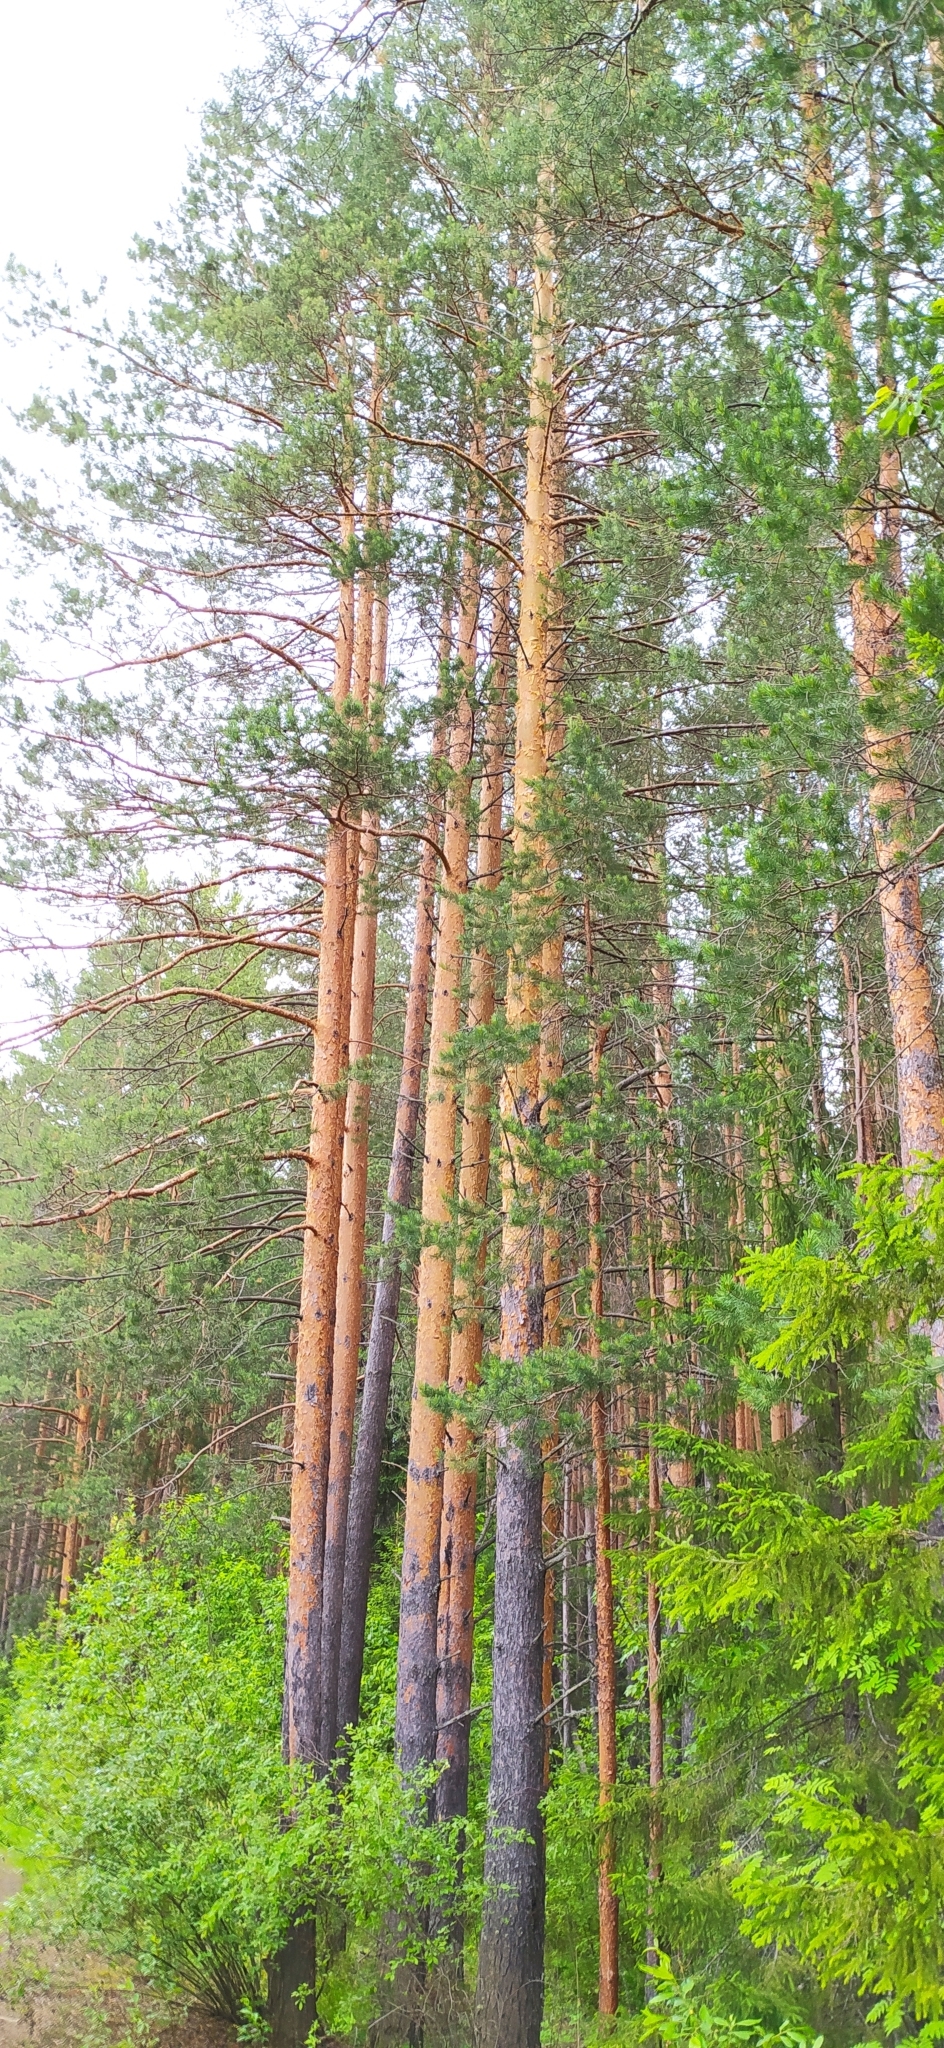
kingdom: Plantae
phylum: Tracheophyta
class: Pinopsida
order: Pinales
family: Pinaceae
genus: Pinus
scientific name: Pinus sylvestris
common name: Scots pine
